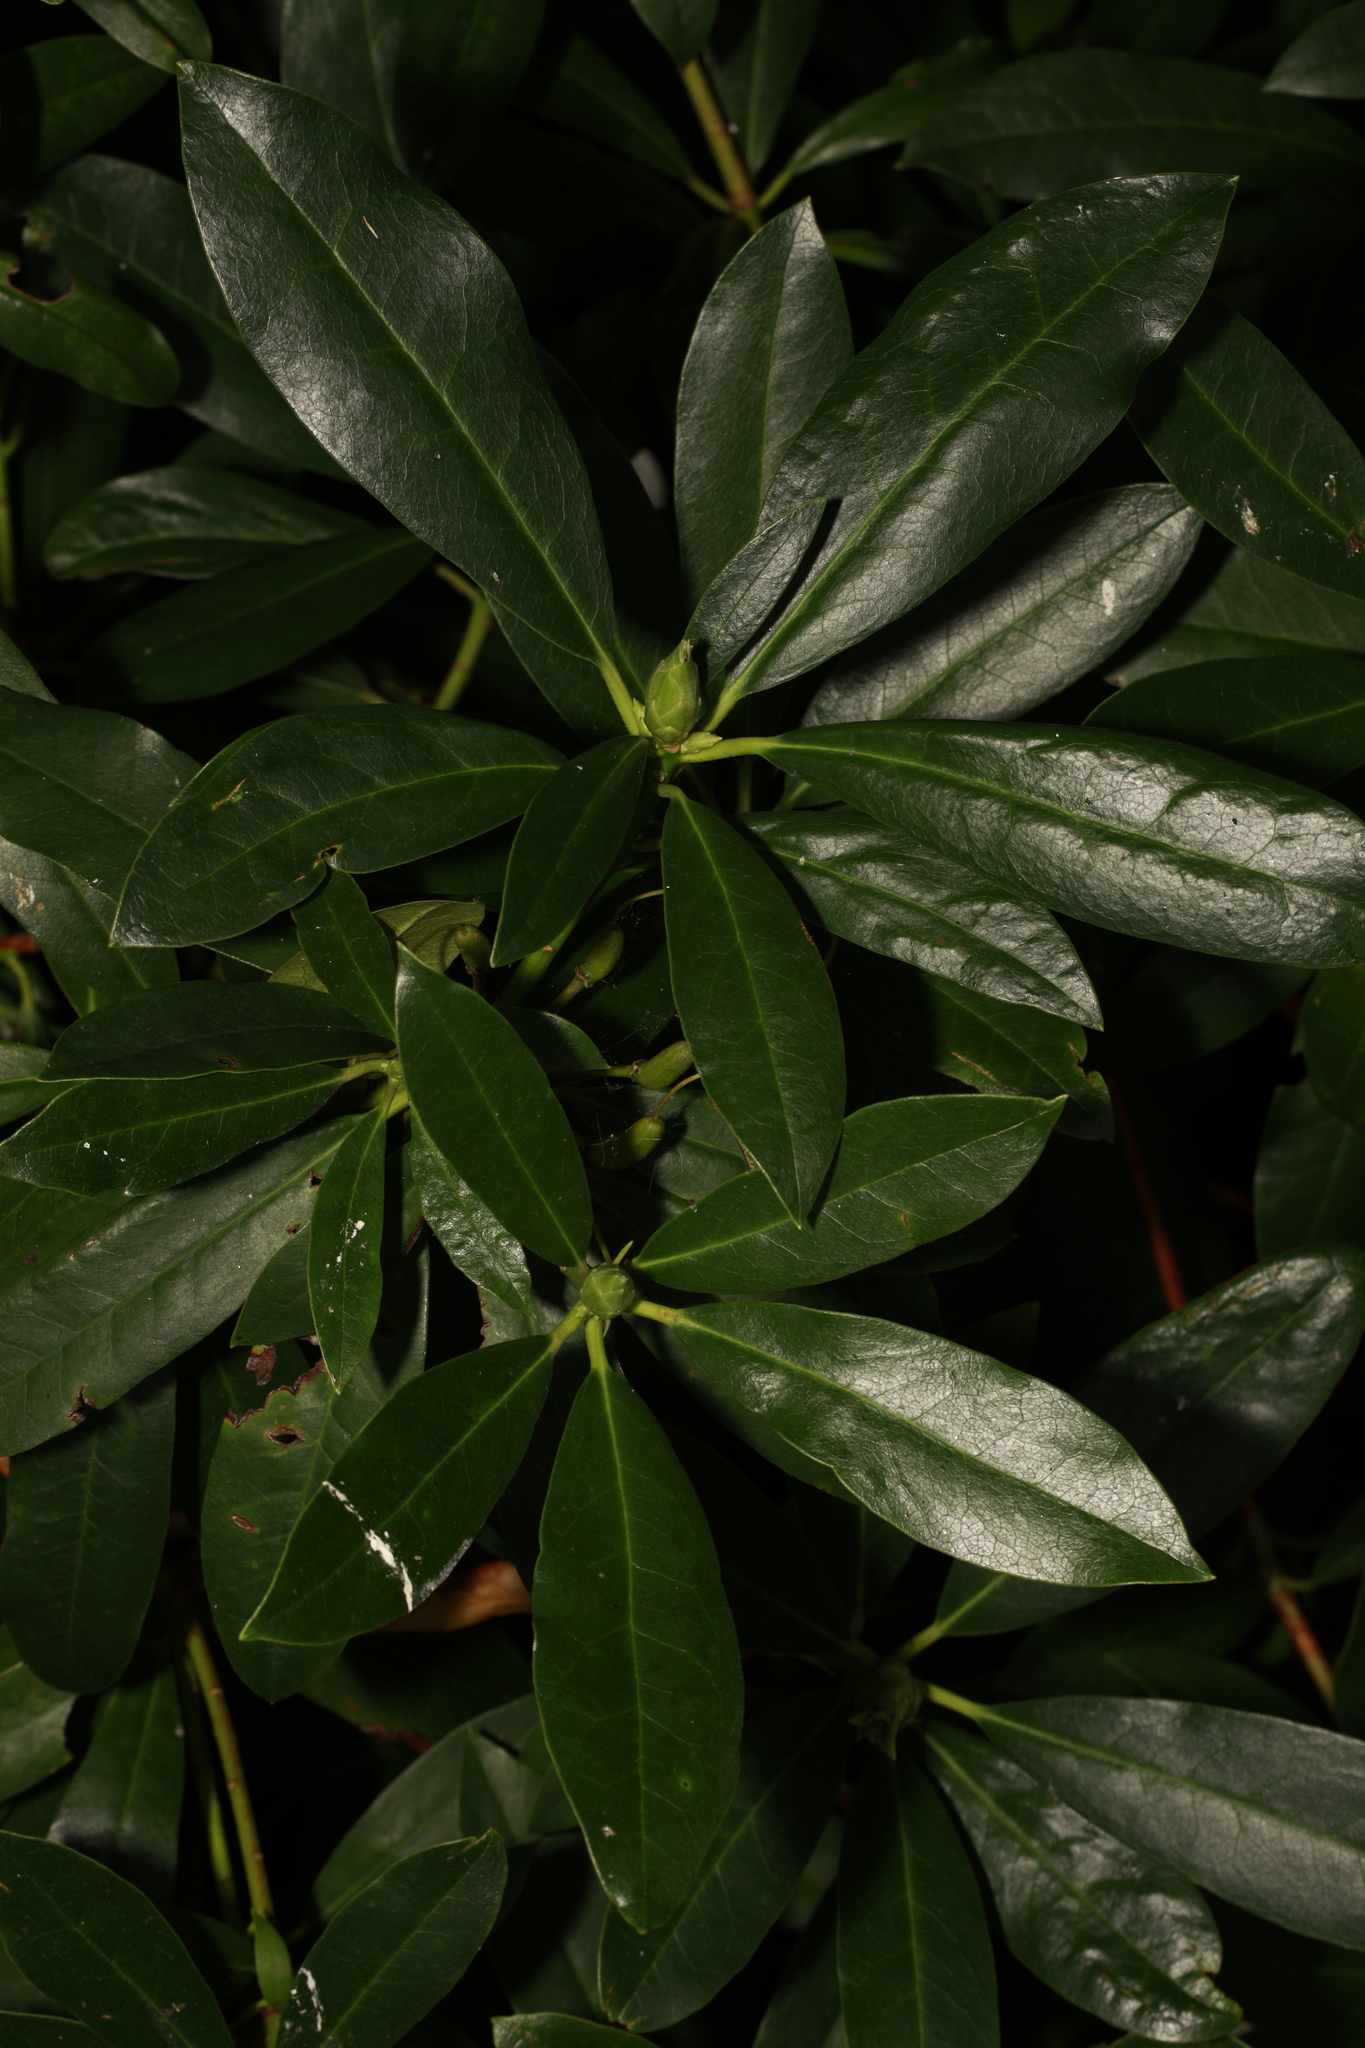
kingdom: Plantae
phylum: Tracheophyta
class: Magnoliopsida
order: Ericales
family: Ericaceae
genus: Rhododendron
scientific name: Rhododendron ponticum
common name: Rhododendron
